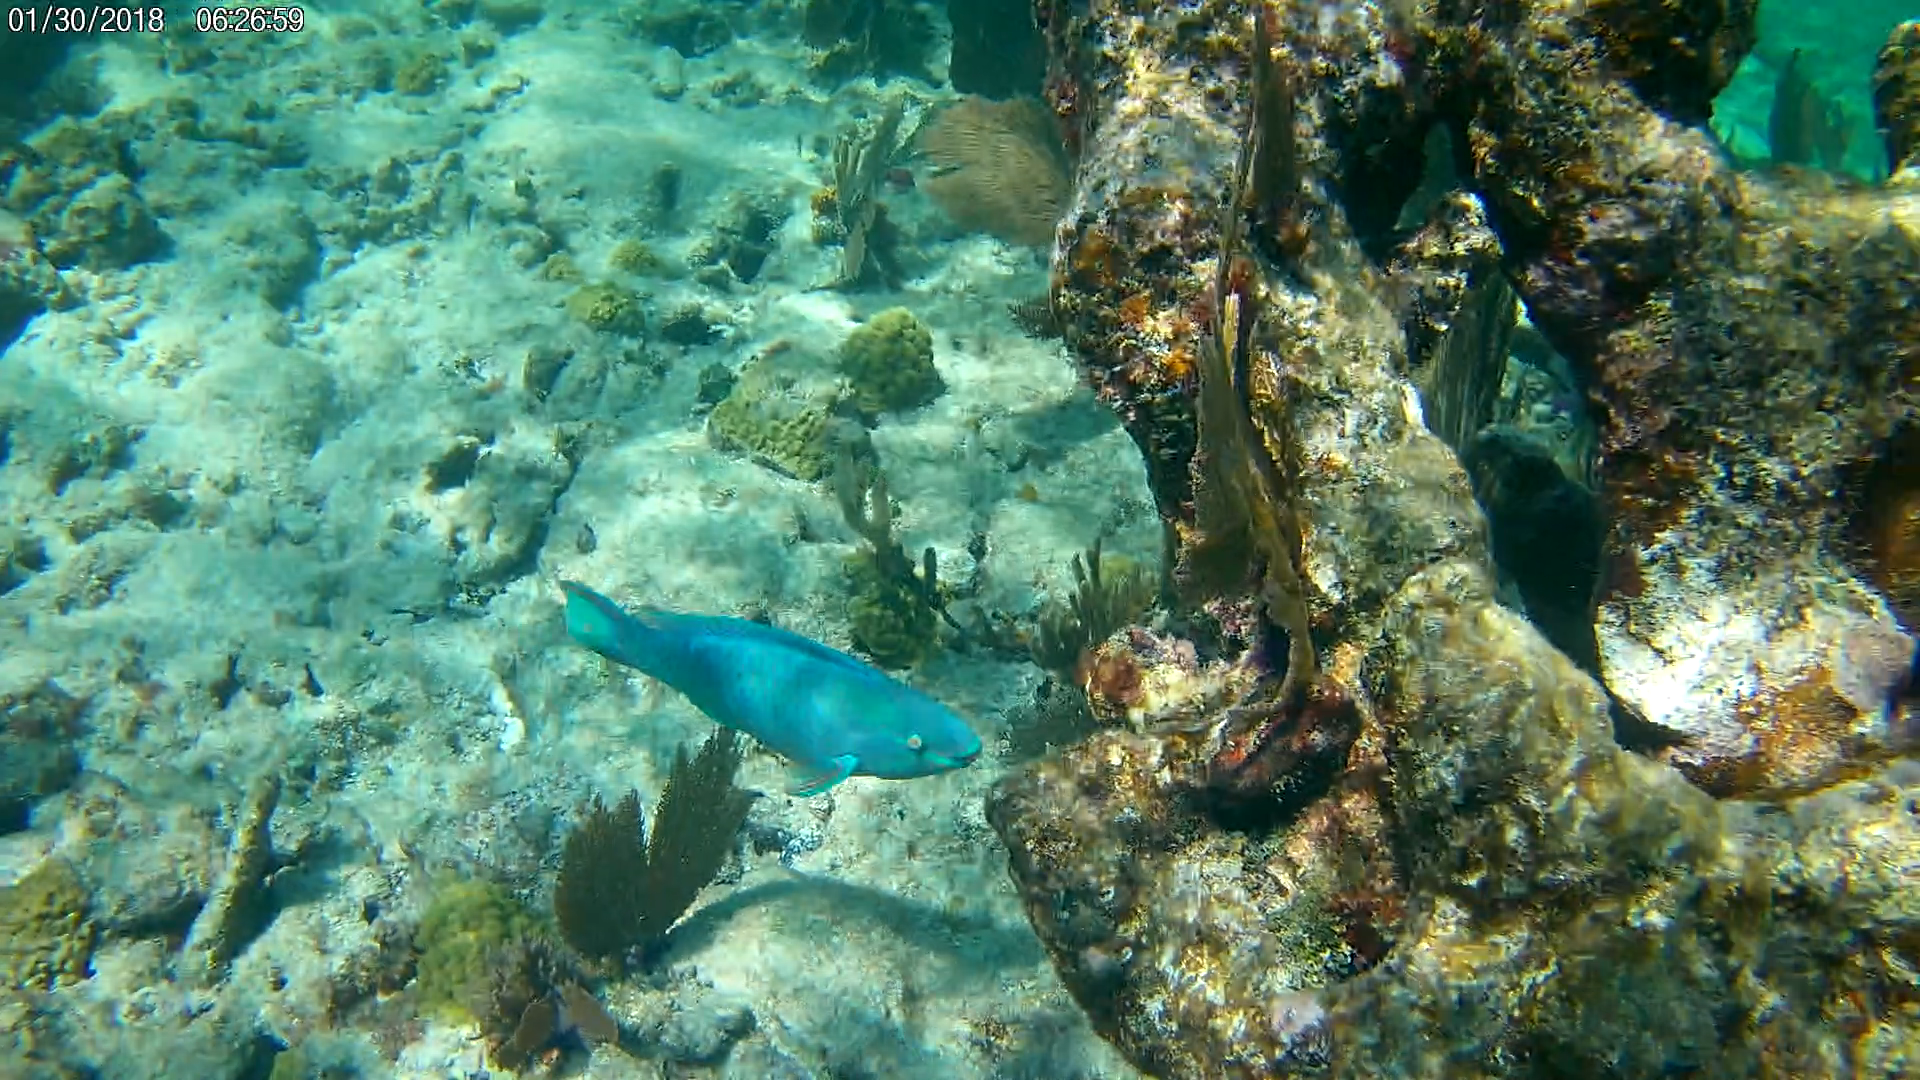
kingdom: Animalia
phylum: Chordata
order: Perciformes
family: Scaridae
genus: Scarus
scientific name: Scarus vetula
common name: Queen parrotfish
